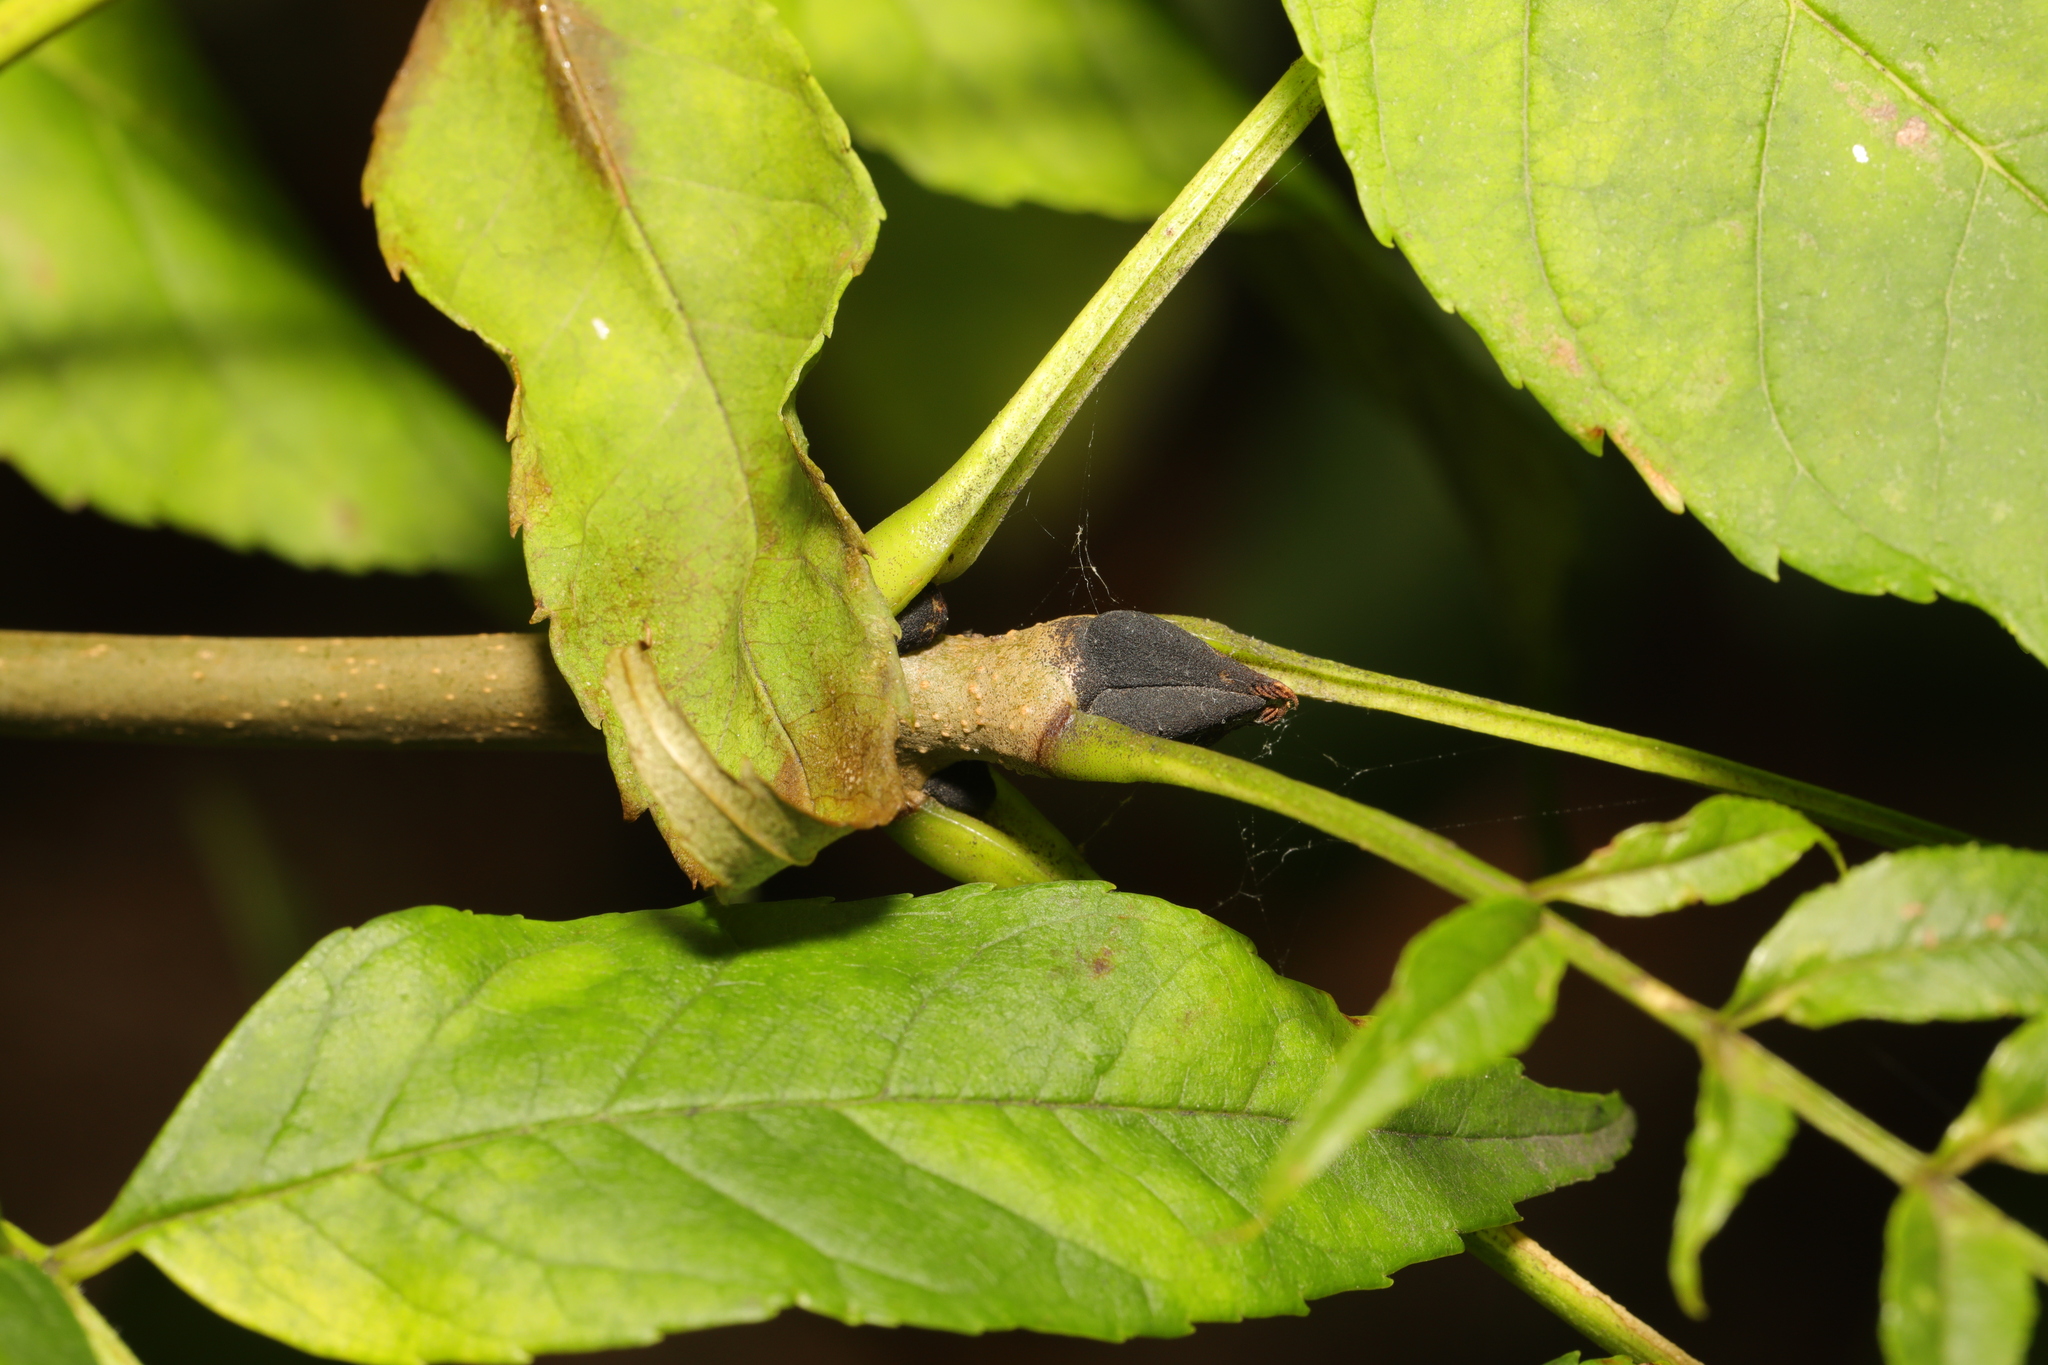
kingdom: Plantae
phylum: Tracheophyta
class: Magnoliopsida
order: Lamiales
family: Oleaceae
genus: Fraxinus
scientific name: Fraxinus excelsior
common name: European ash
